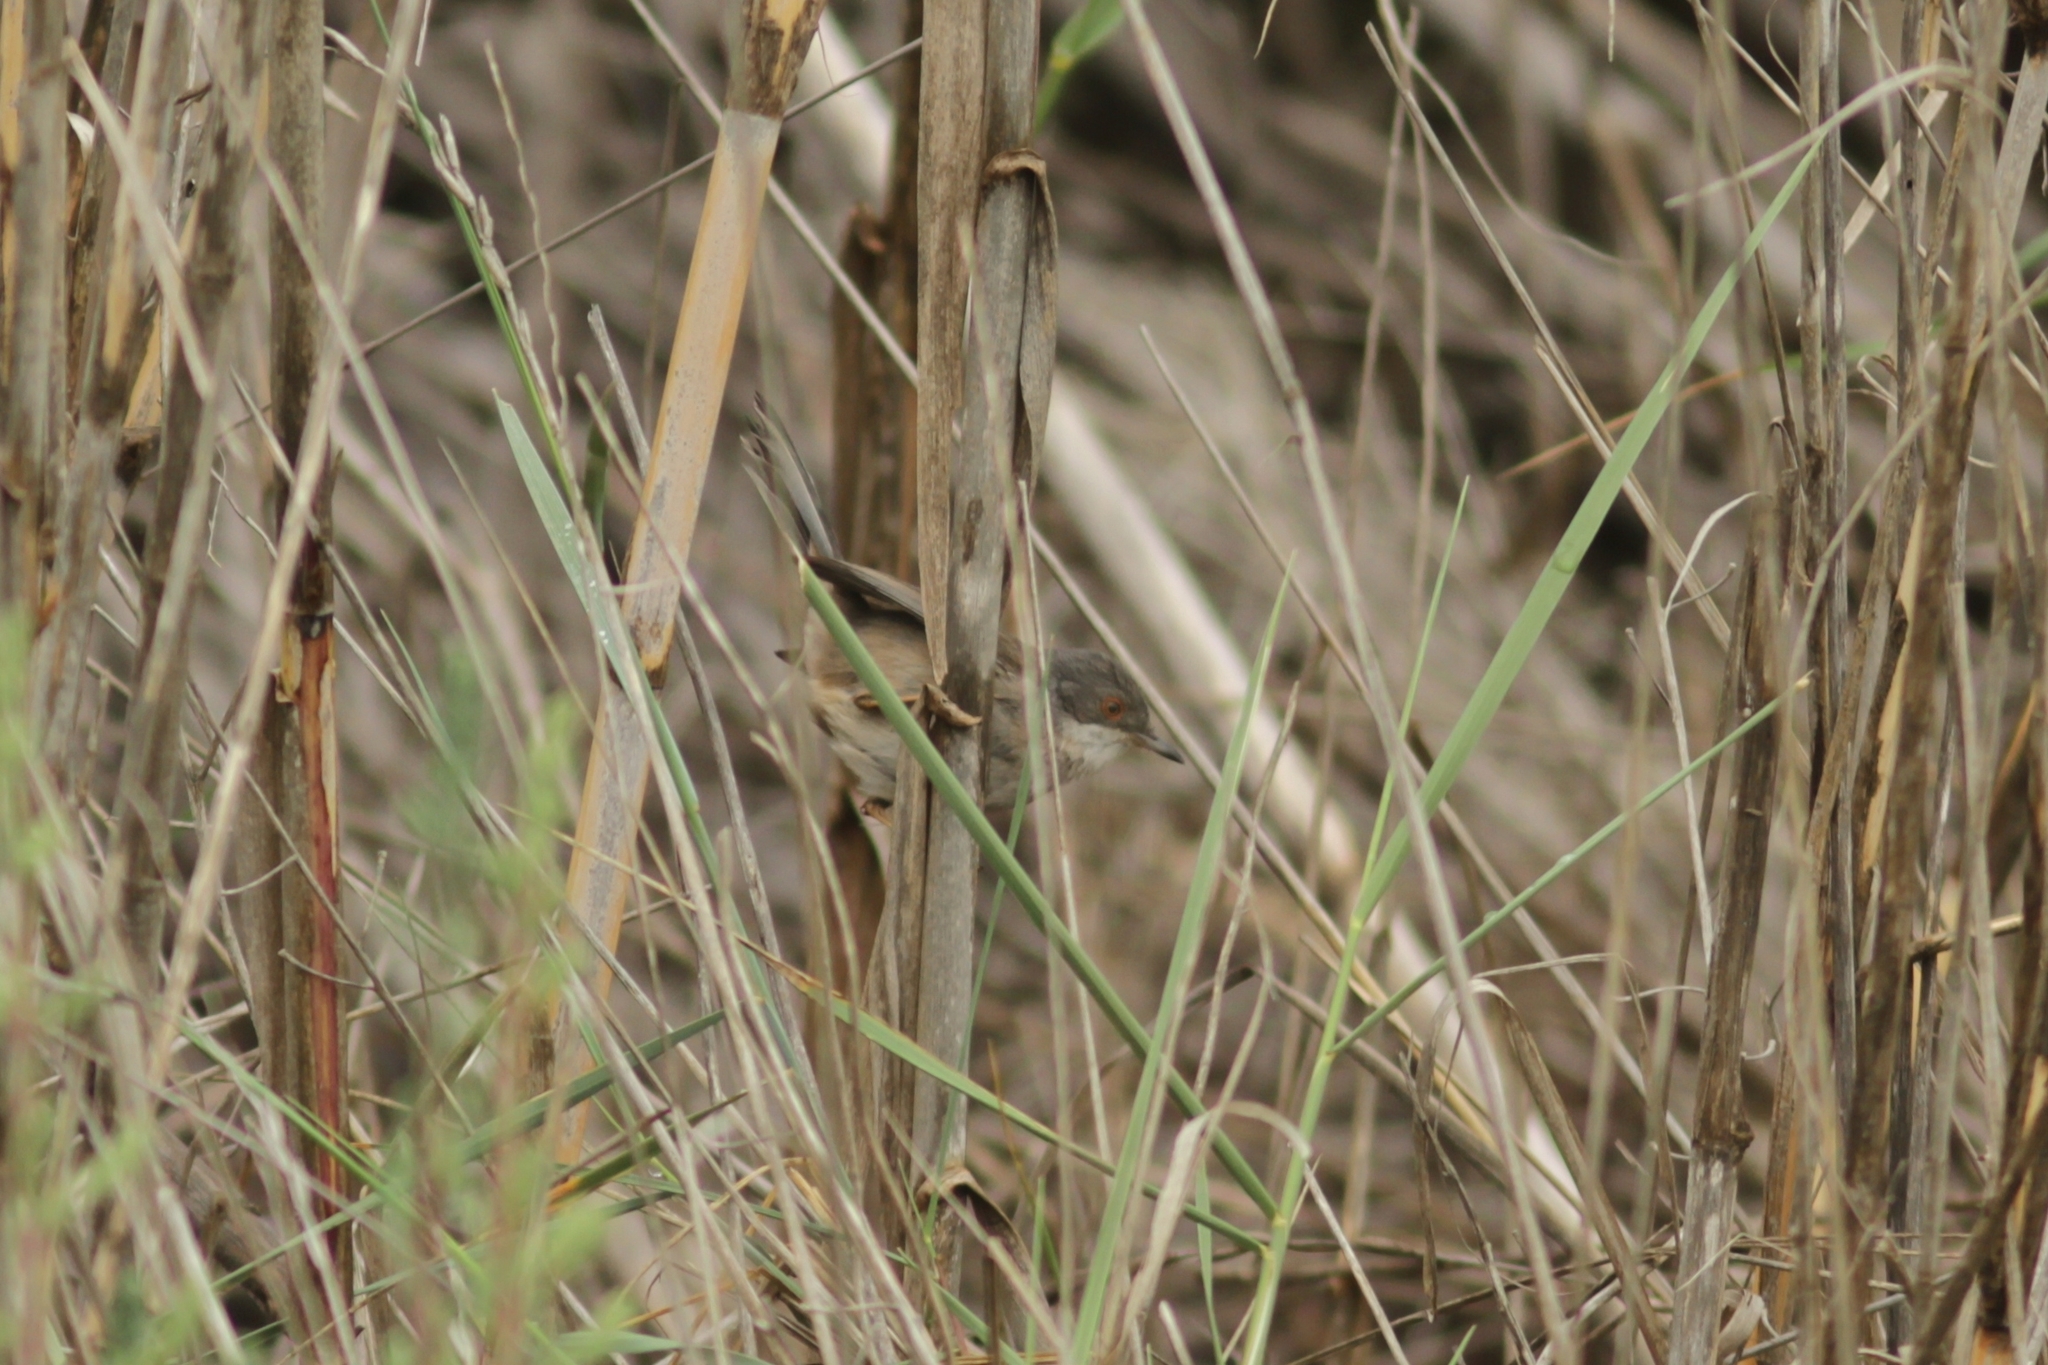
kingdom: Animalia
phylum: Chordata
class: Aves
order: Passeriformes
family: Sylviidae
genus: Curruca
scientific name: Curruca melanocephala
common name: Sardinian warbler
